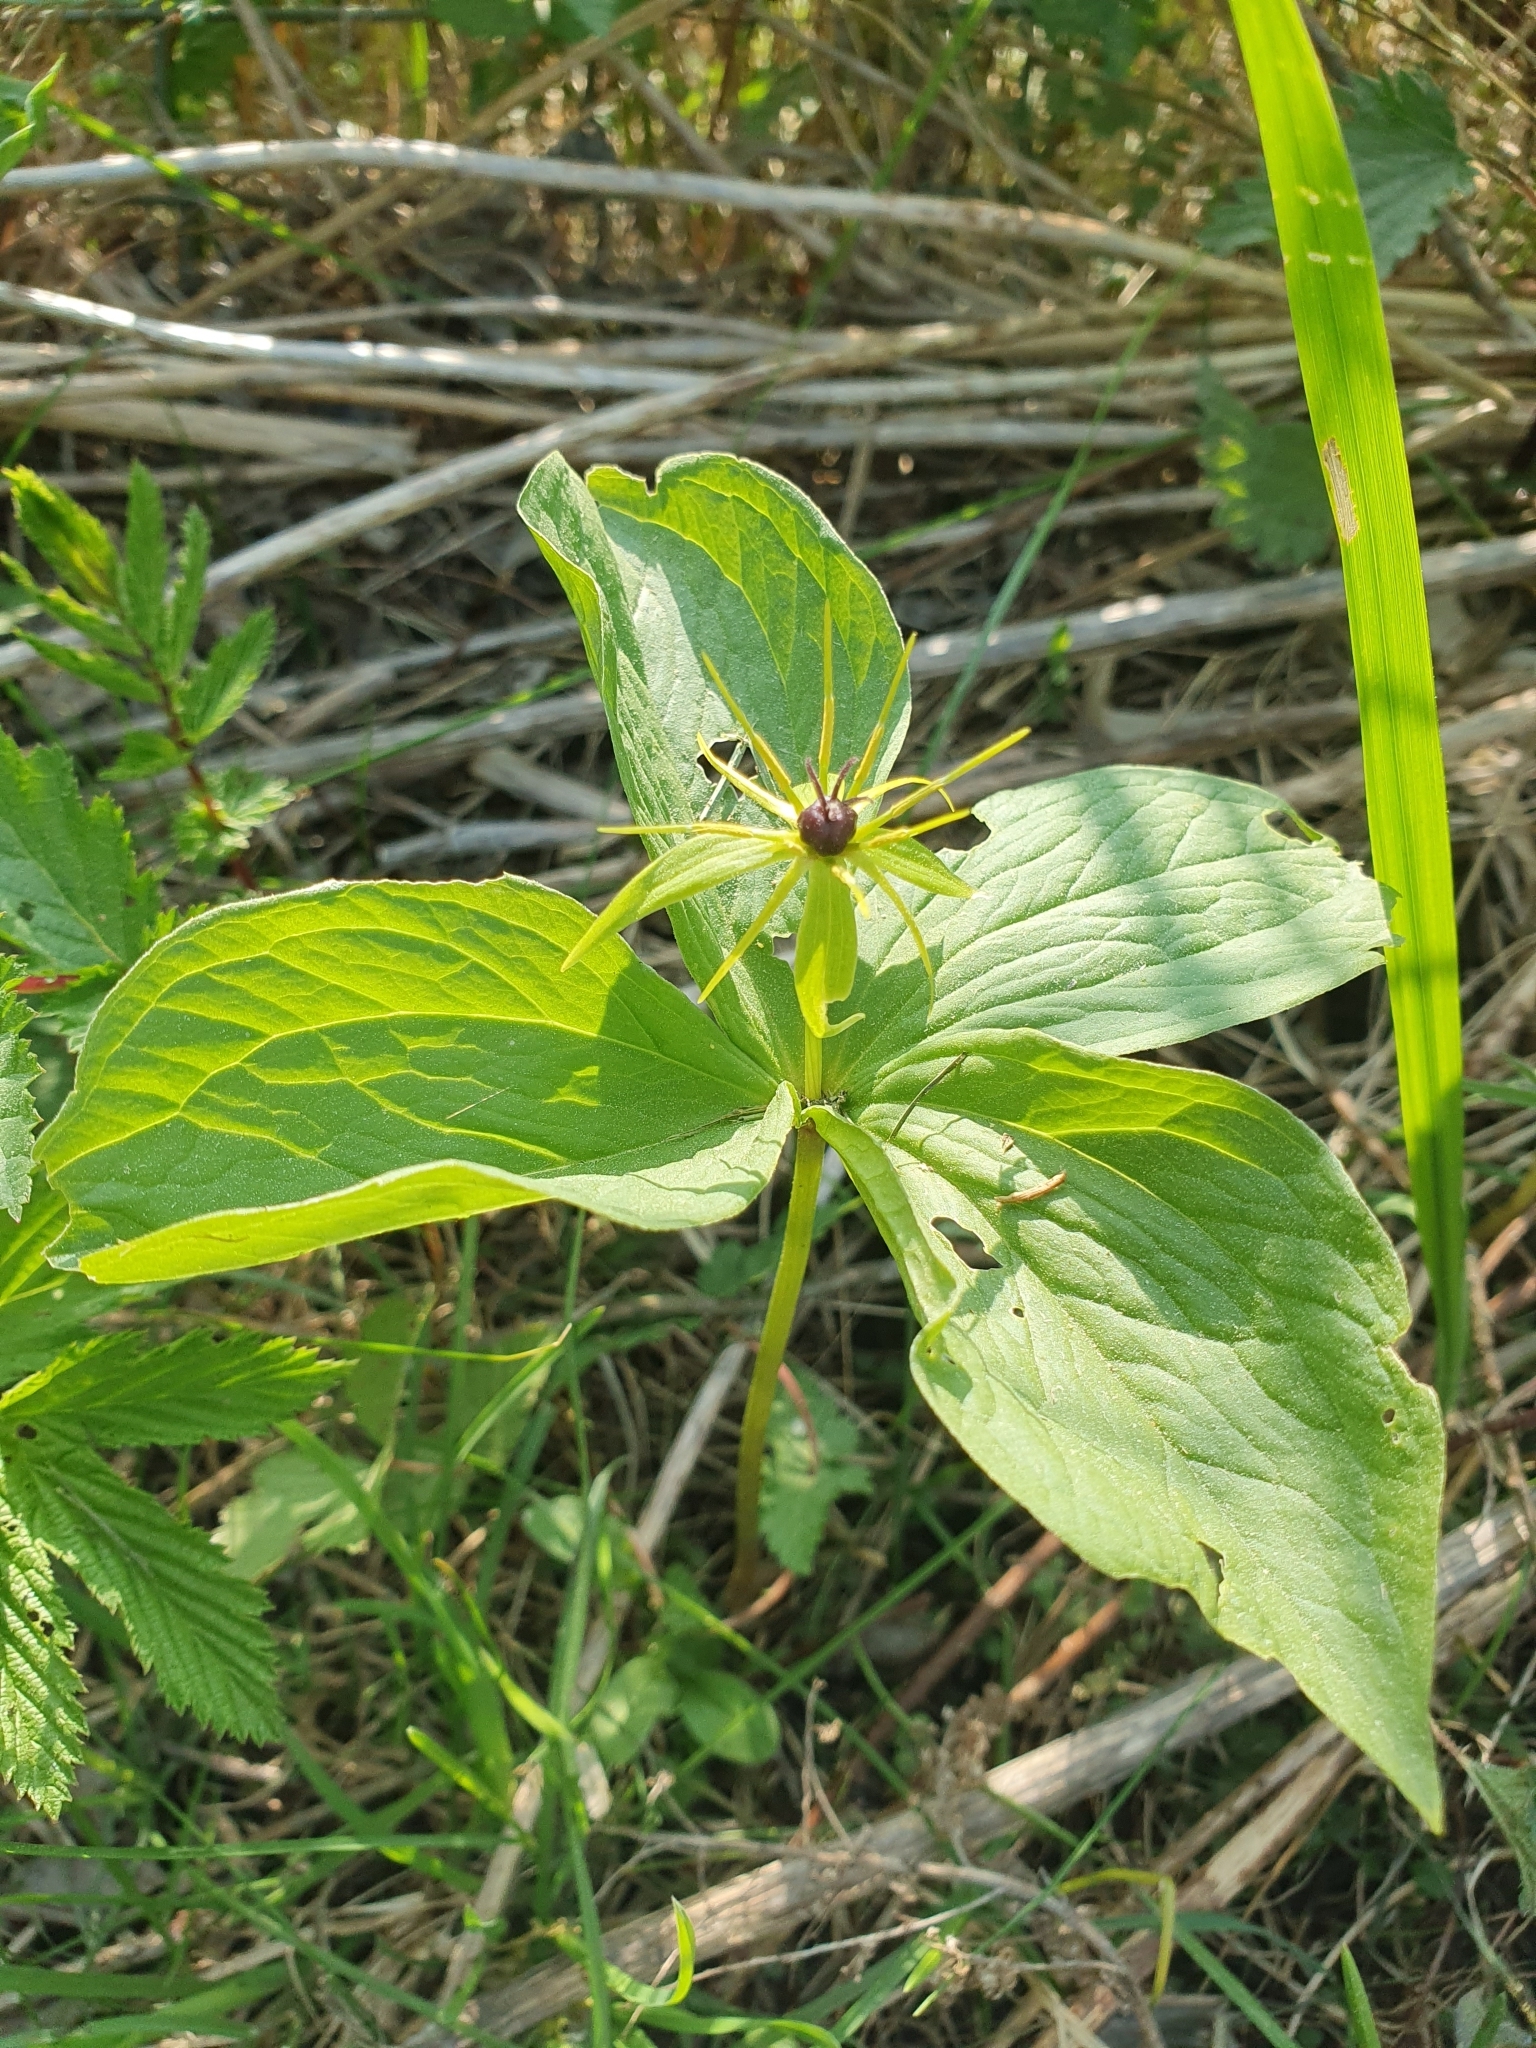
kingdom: Plantae
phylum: Tracheophyta
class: Liliopsida
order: Liliales
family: Melanthiaceae
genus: Paris
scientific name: Paris quadrifolia
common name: Herb-paris
